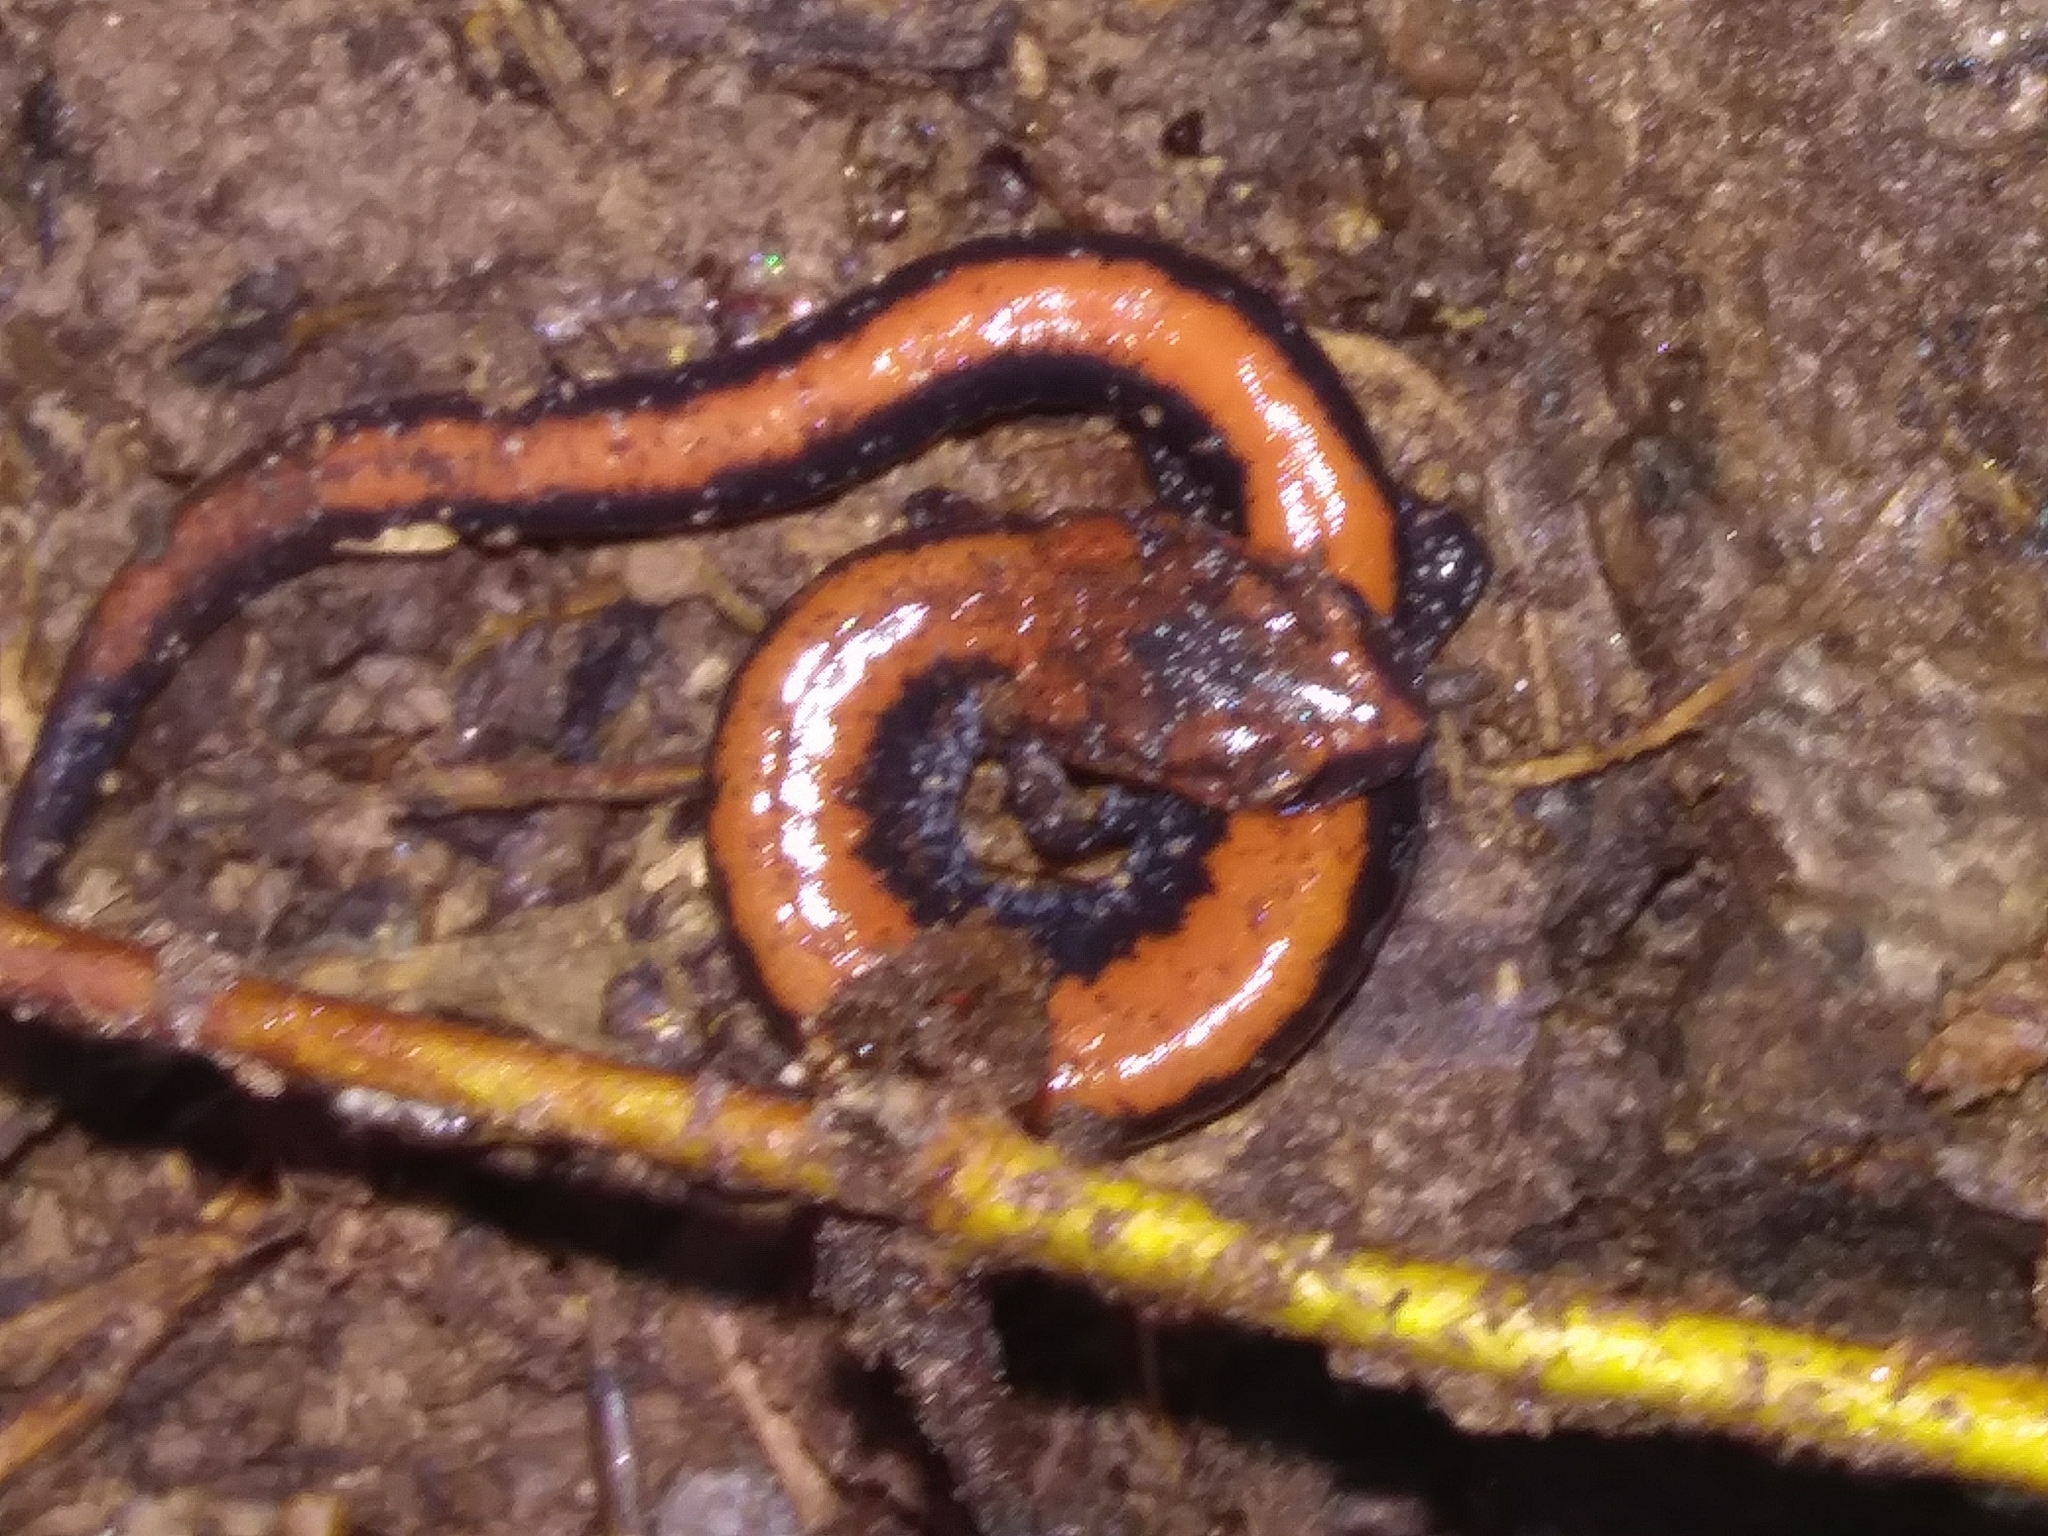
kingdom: Animalia
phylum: Chordata
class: Amphibia
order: Caudata
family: Plethodontidae
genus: Plethodon
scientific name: Plethodon cinereus
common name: Redback salamander
